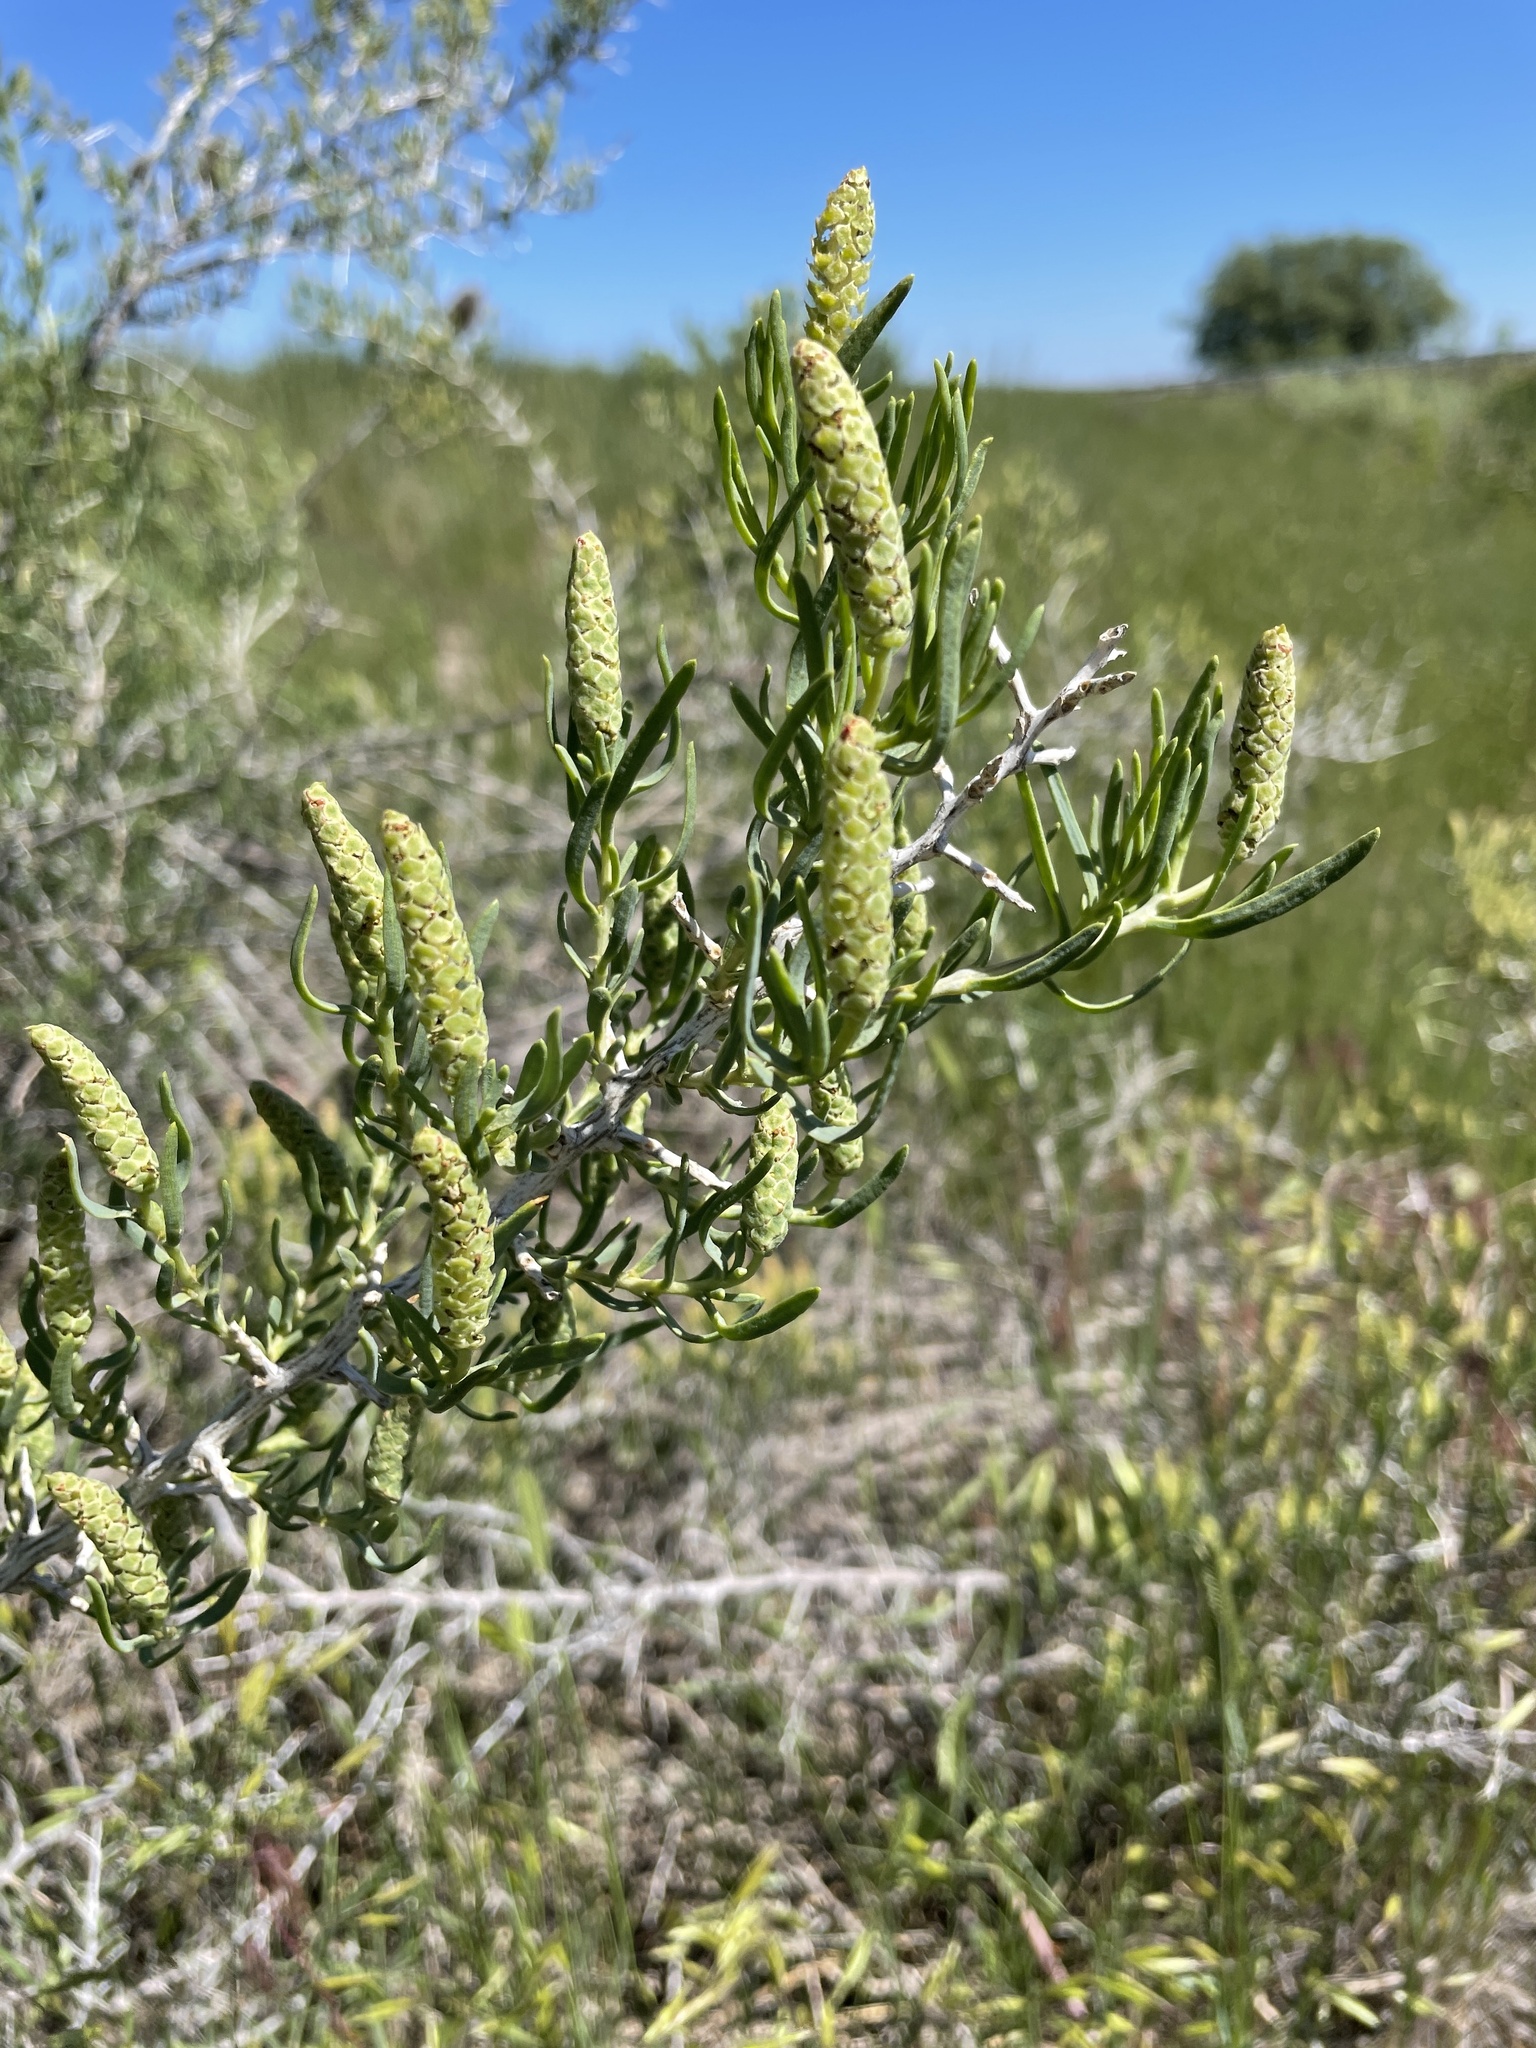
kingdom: Plantae
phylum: Tracheophyta
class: Magnoliopsida
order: Caryophyllales
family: Sarcobataceae
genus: Sarcobatus
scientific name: Sarcobatus vermiculatus
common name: Greasewood
